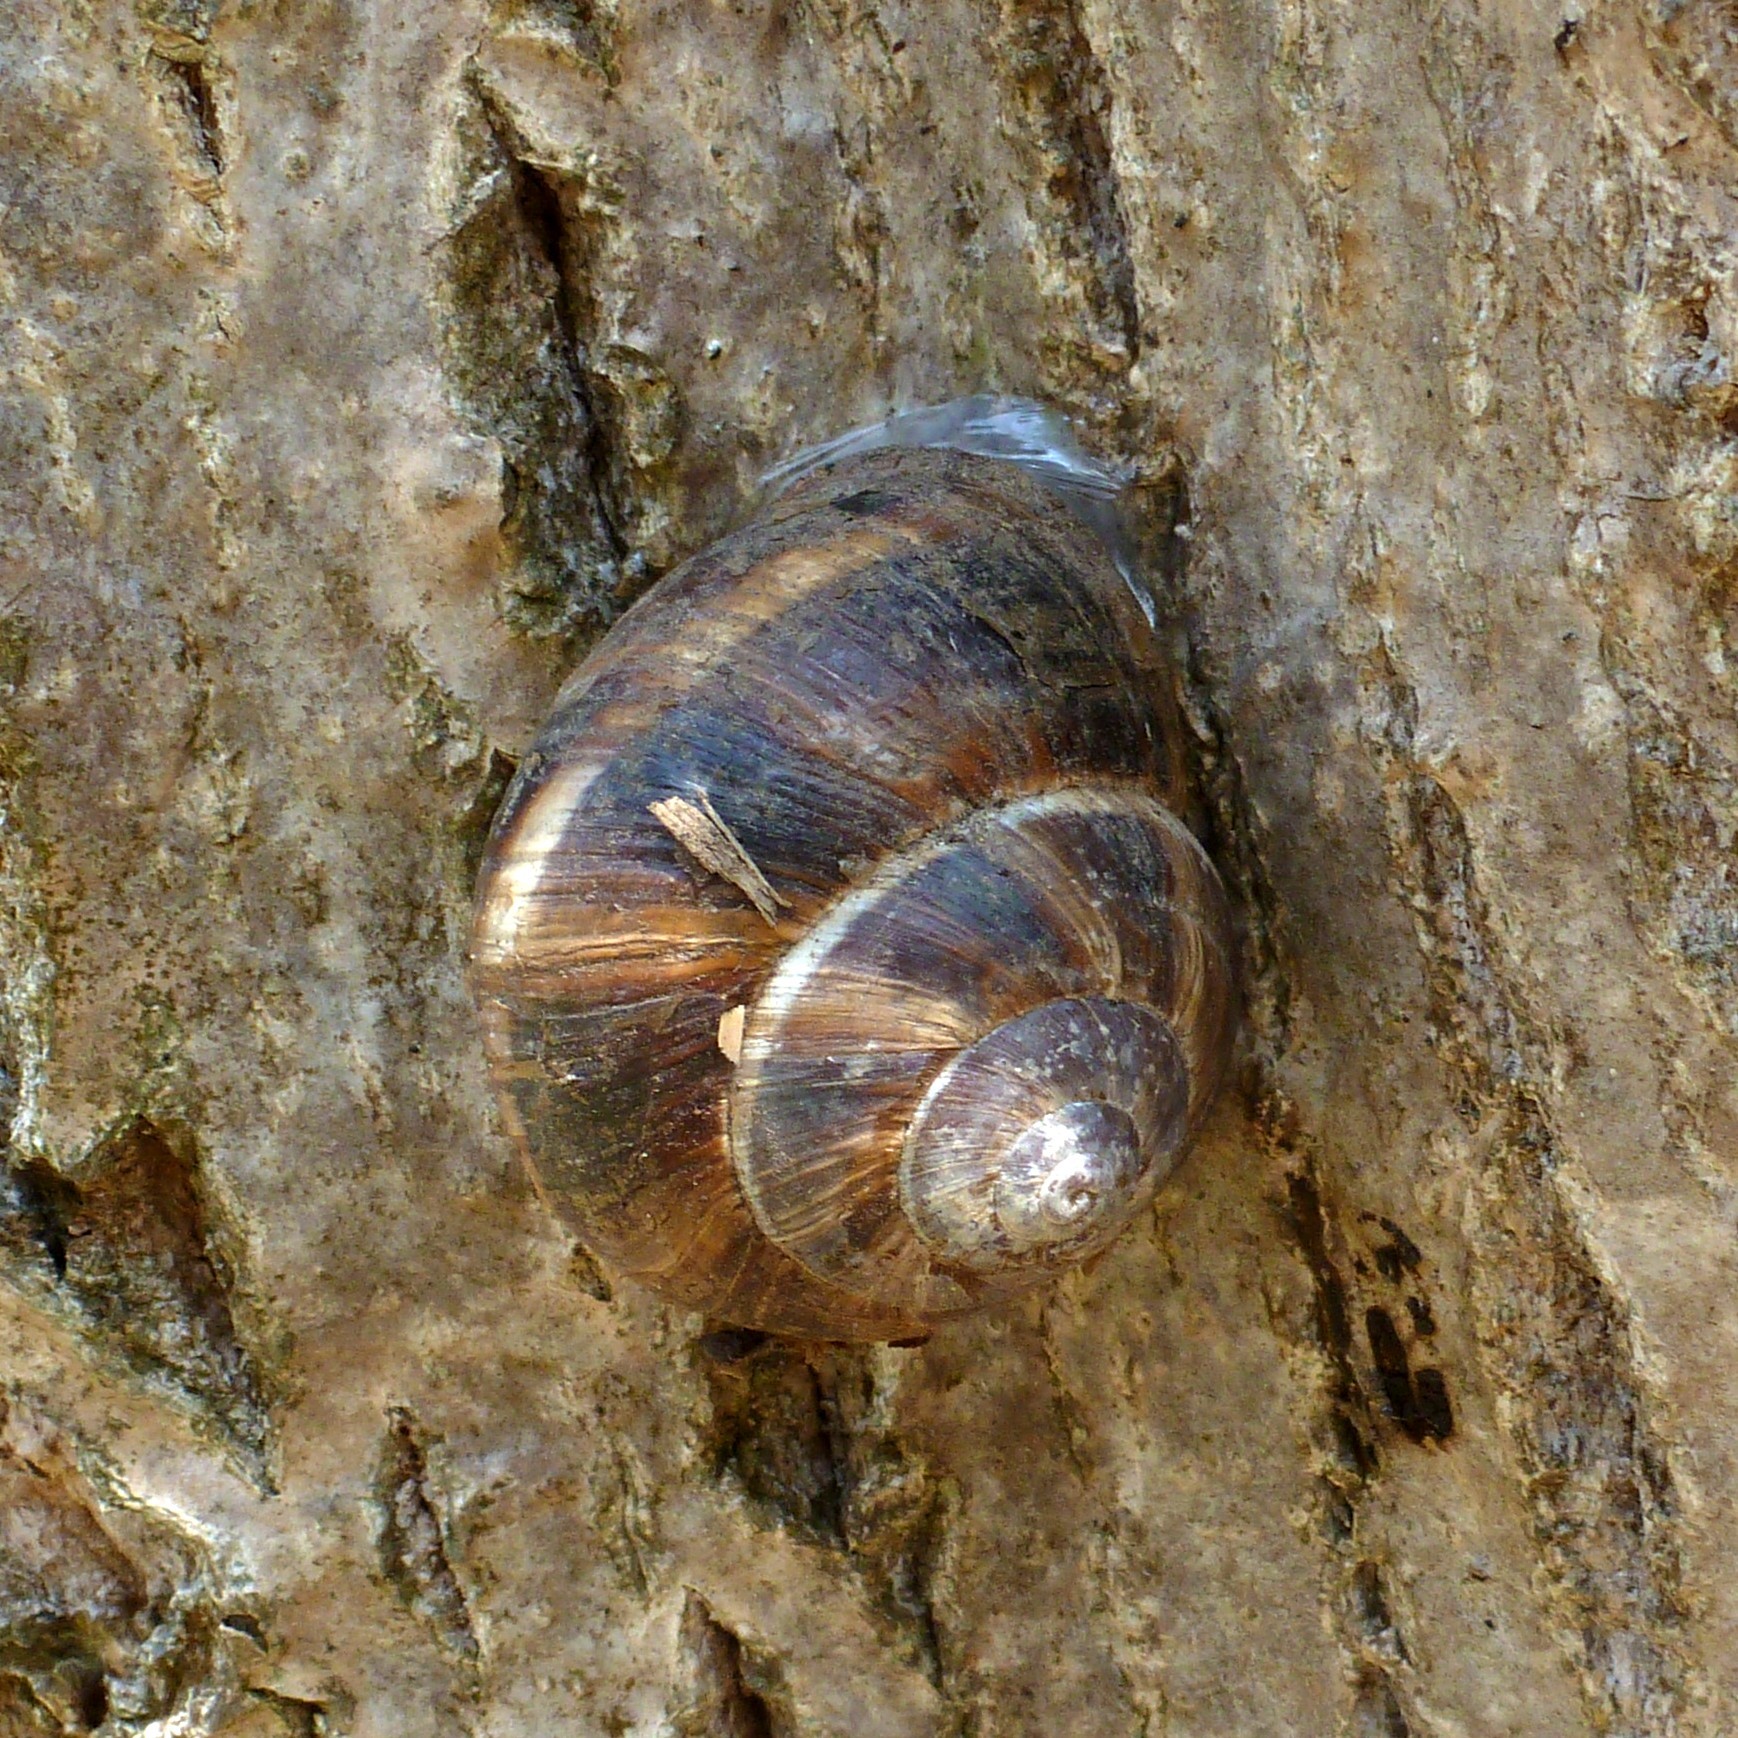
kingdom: Animalia
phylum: Mollusca
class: Gastropoda
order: Stylommatophora
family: Helicidae
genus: Helix
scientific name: Helix lucorum
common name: Turkish snail
